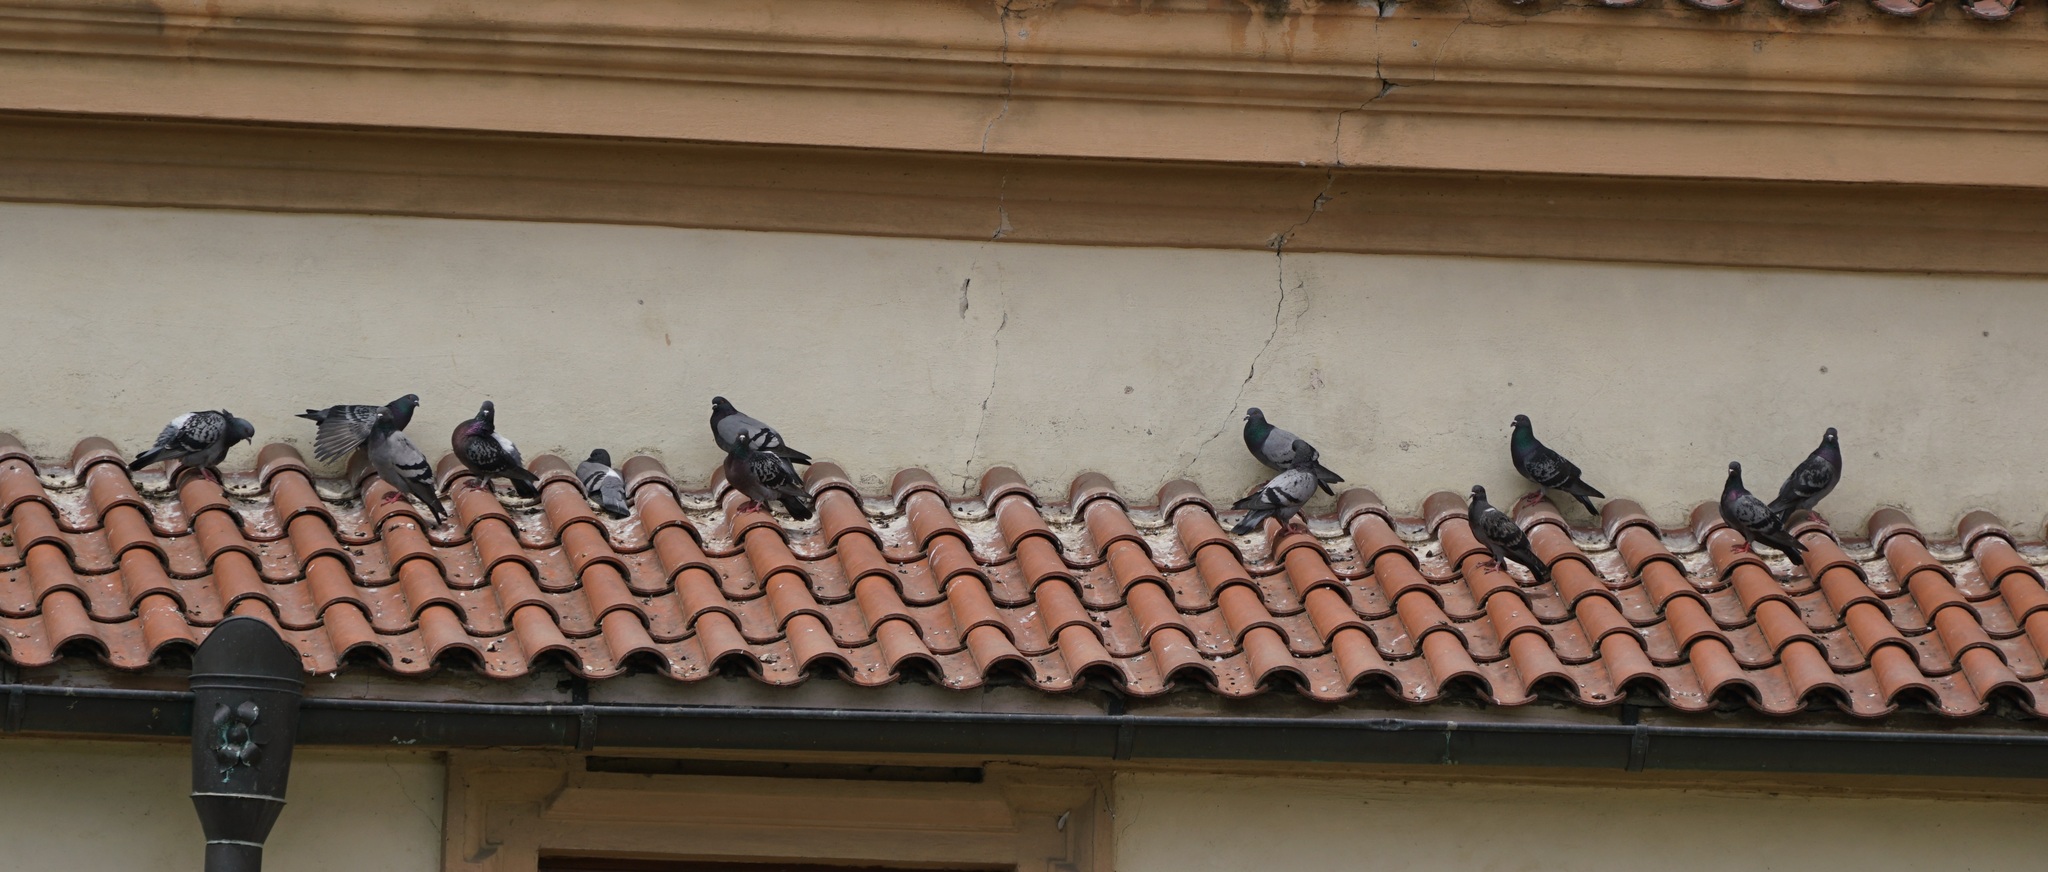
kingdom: Animalia
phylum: Chordata
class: Aves
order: Columbiformes
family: Columbidae
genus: Columba
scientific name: Columba livia
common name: Rock pigeon
